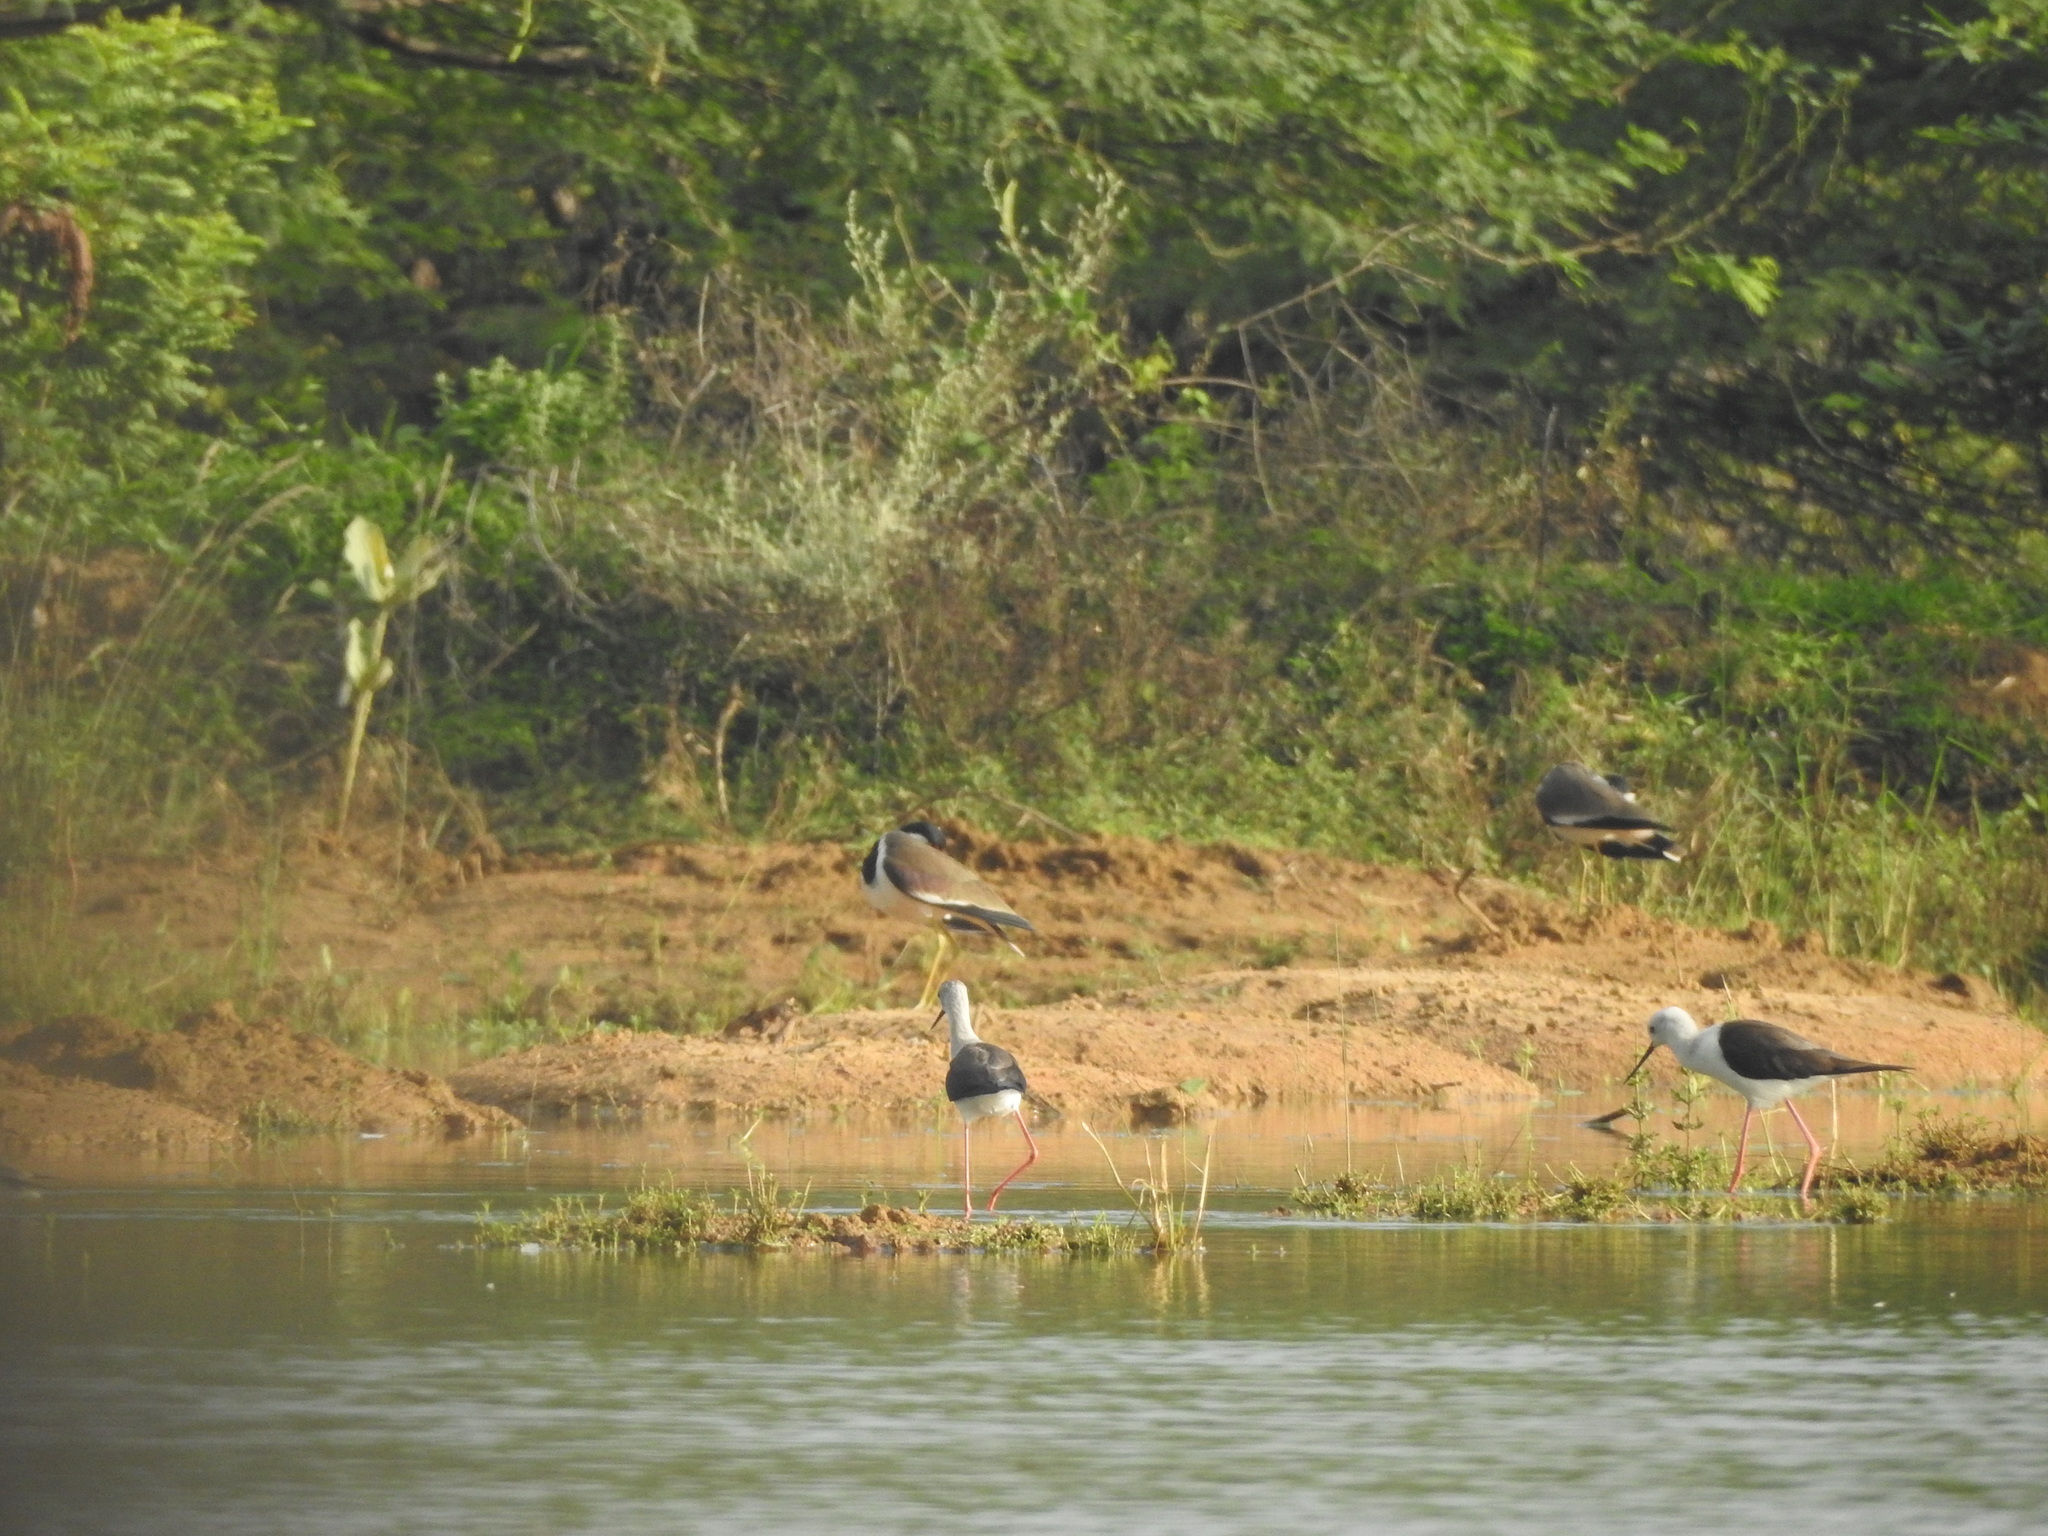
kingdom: Animalia
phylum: Chordata
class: Aves
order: Charadriiformes
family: Charadriidae
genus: Vanellus
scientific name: Vanellus indicus
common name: Red-wattled lapwing
